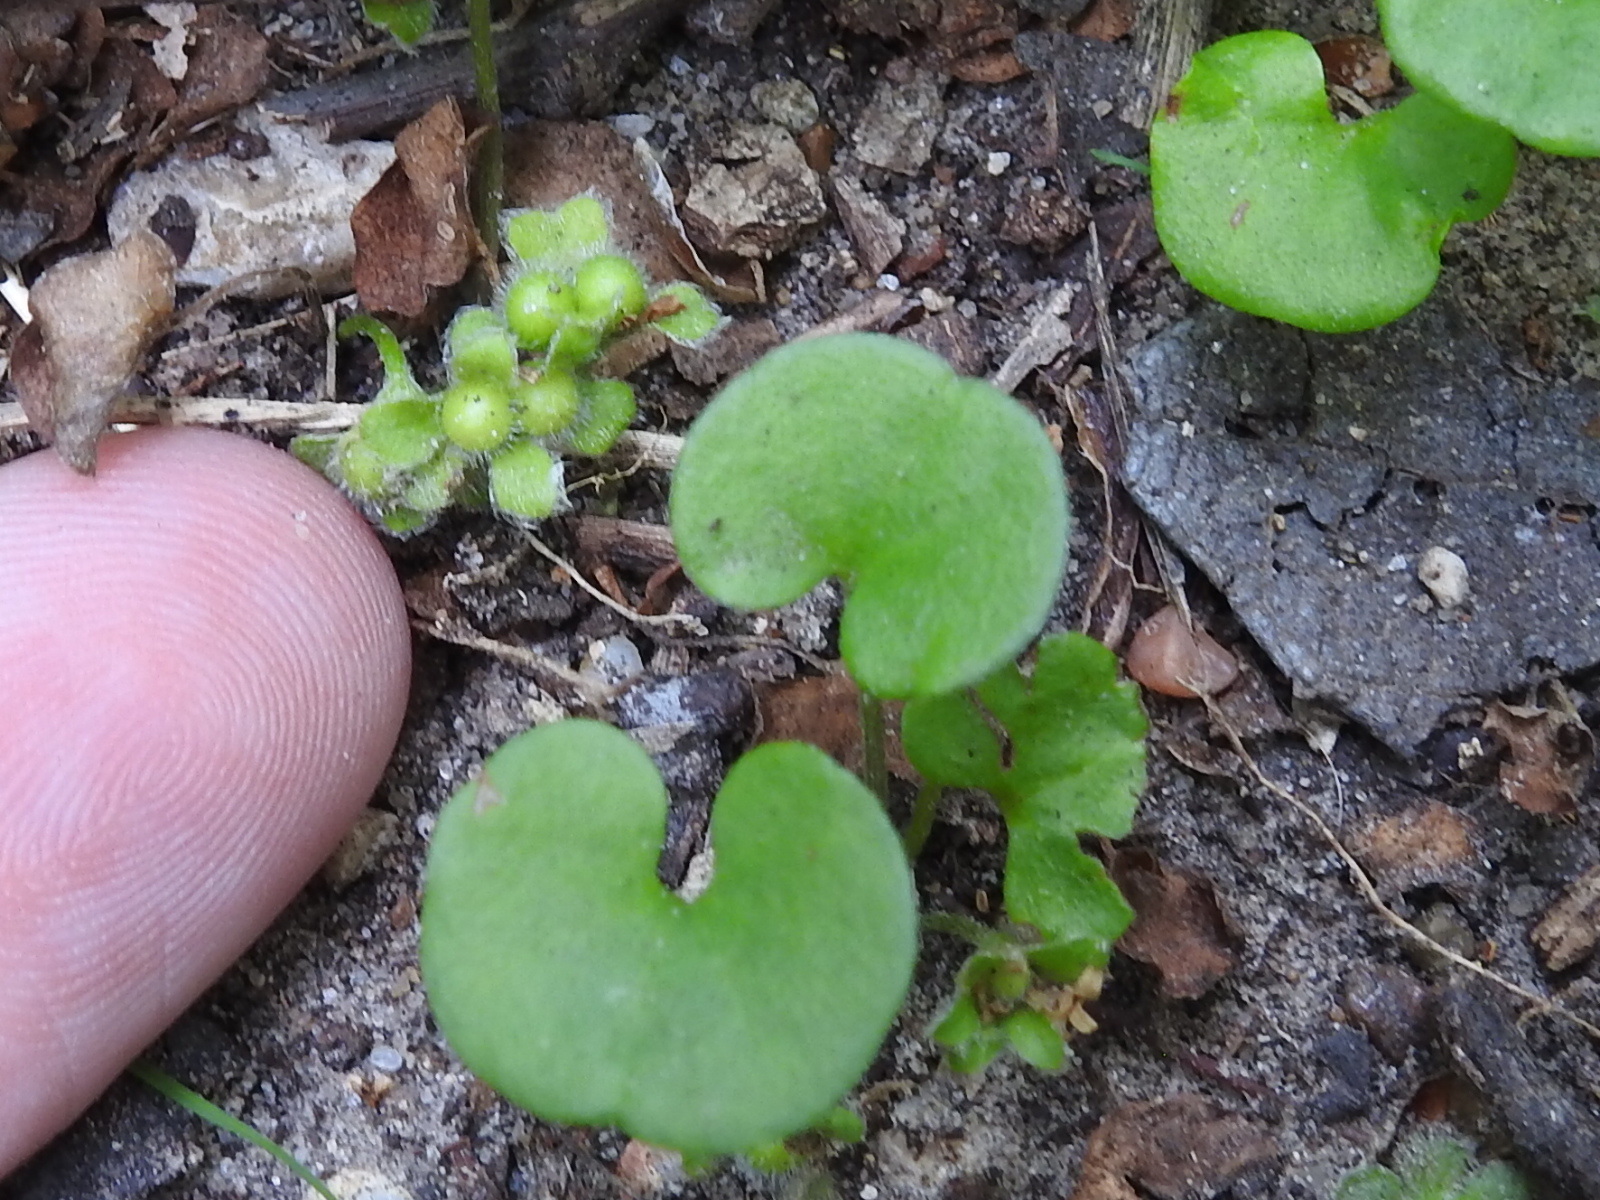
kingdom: Plantae
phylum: Tracheophyta
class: Magnoliopsida
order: Solanales
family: Convolvulaceae
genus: Dichondra
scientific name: Dichondra carolinensis
